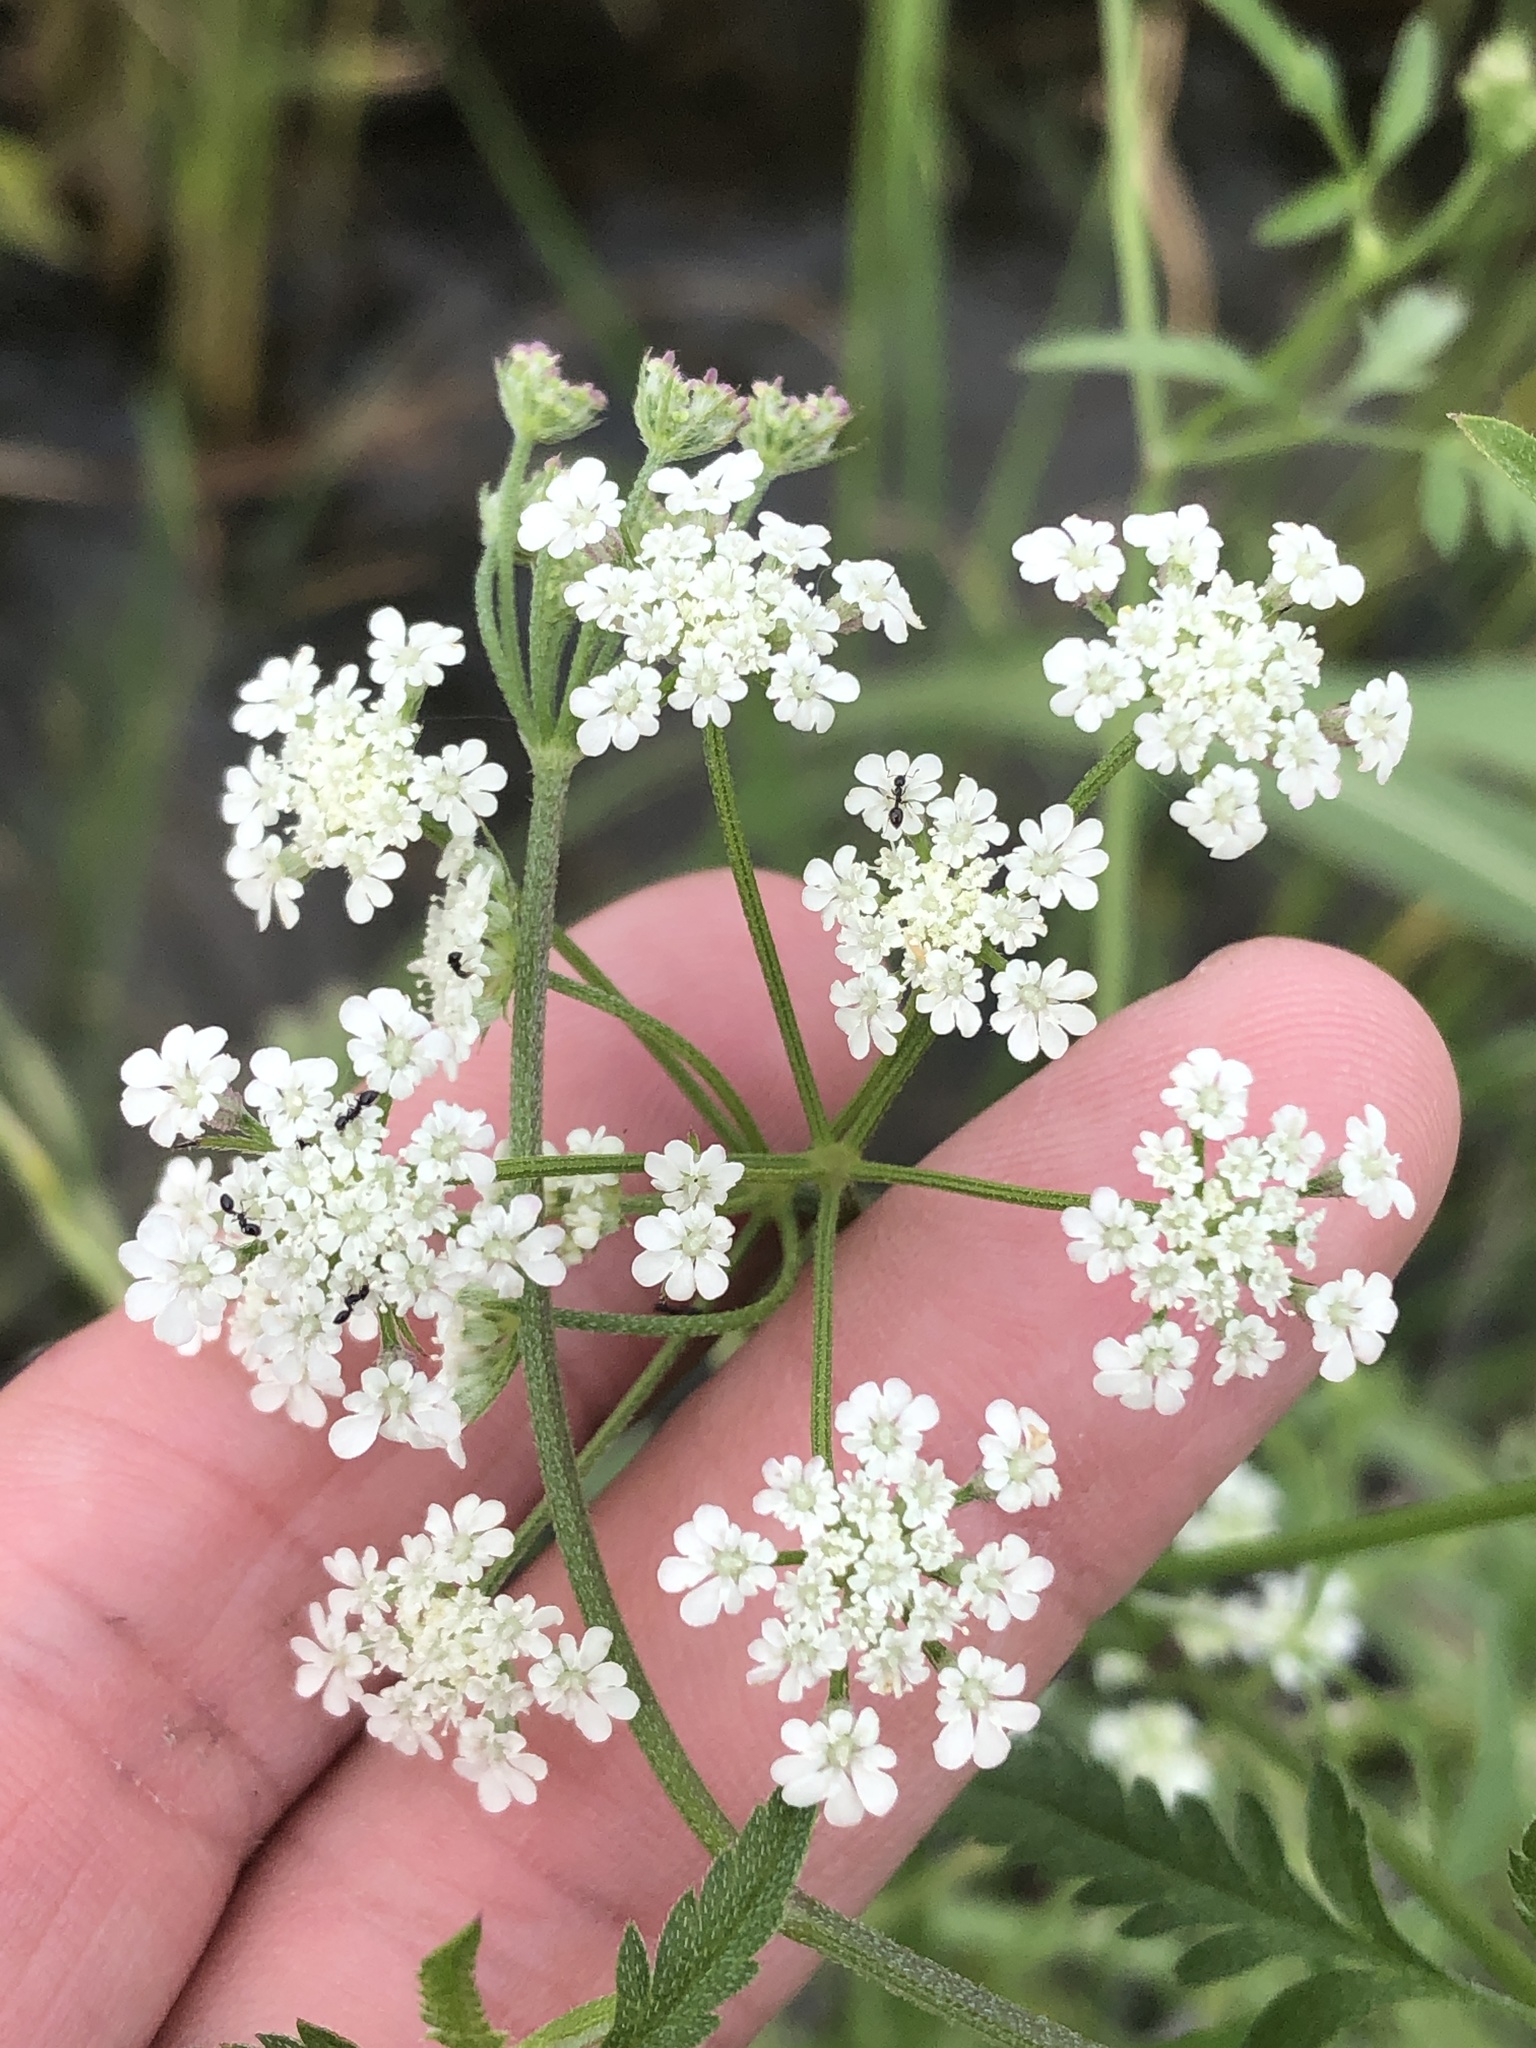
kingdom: Plantae
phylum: Tracheophyta
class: Magnoliopsida
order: Apiales
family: Apiaceae
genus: Torilis
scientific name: Torilis arvensis
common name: Spreading hedge-parsley
